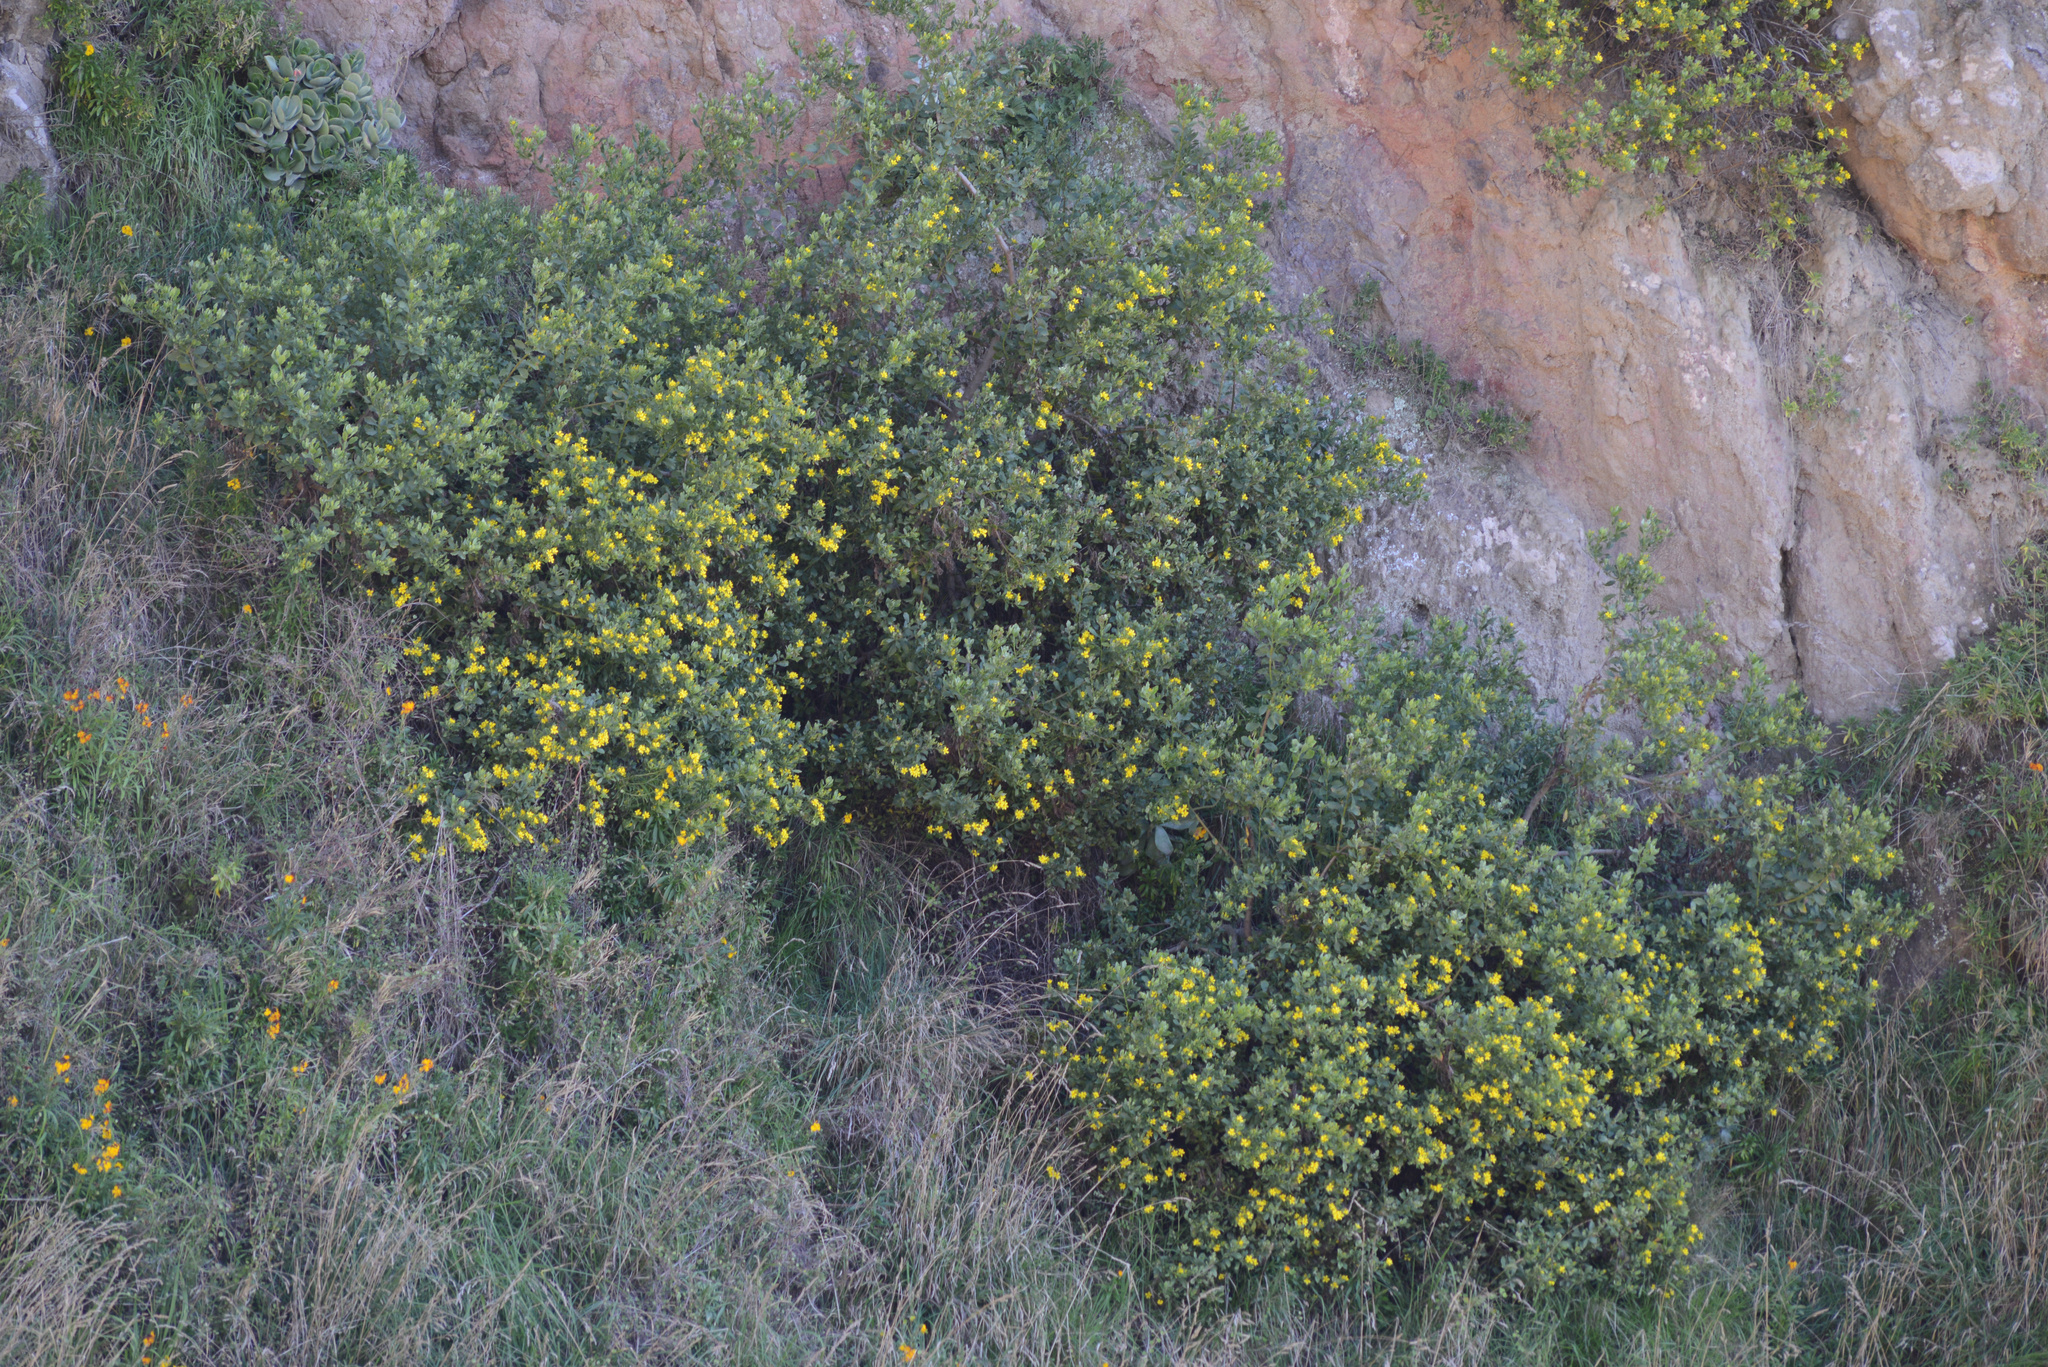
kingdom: Plantae
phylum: Tracheophyta
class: Magnoliopsida
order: Asterales
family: Asteraceae
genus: Osteospermum
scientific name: Osteospermum moniliferum
